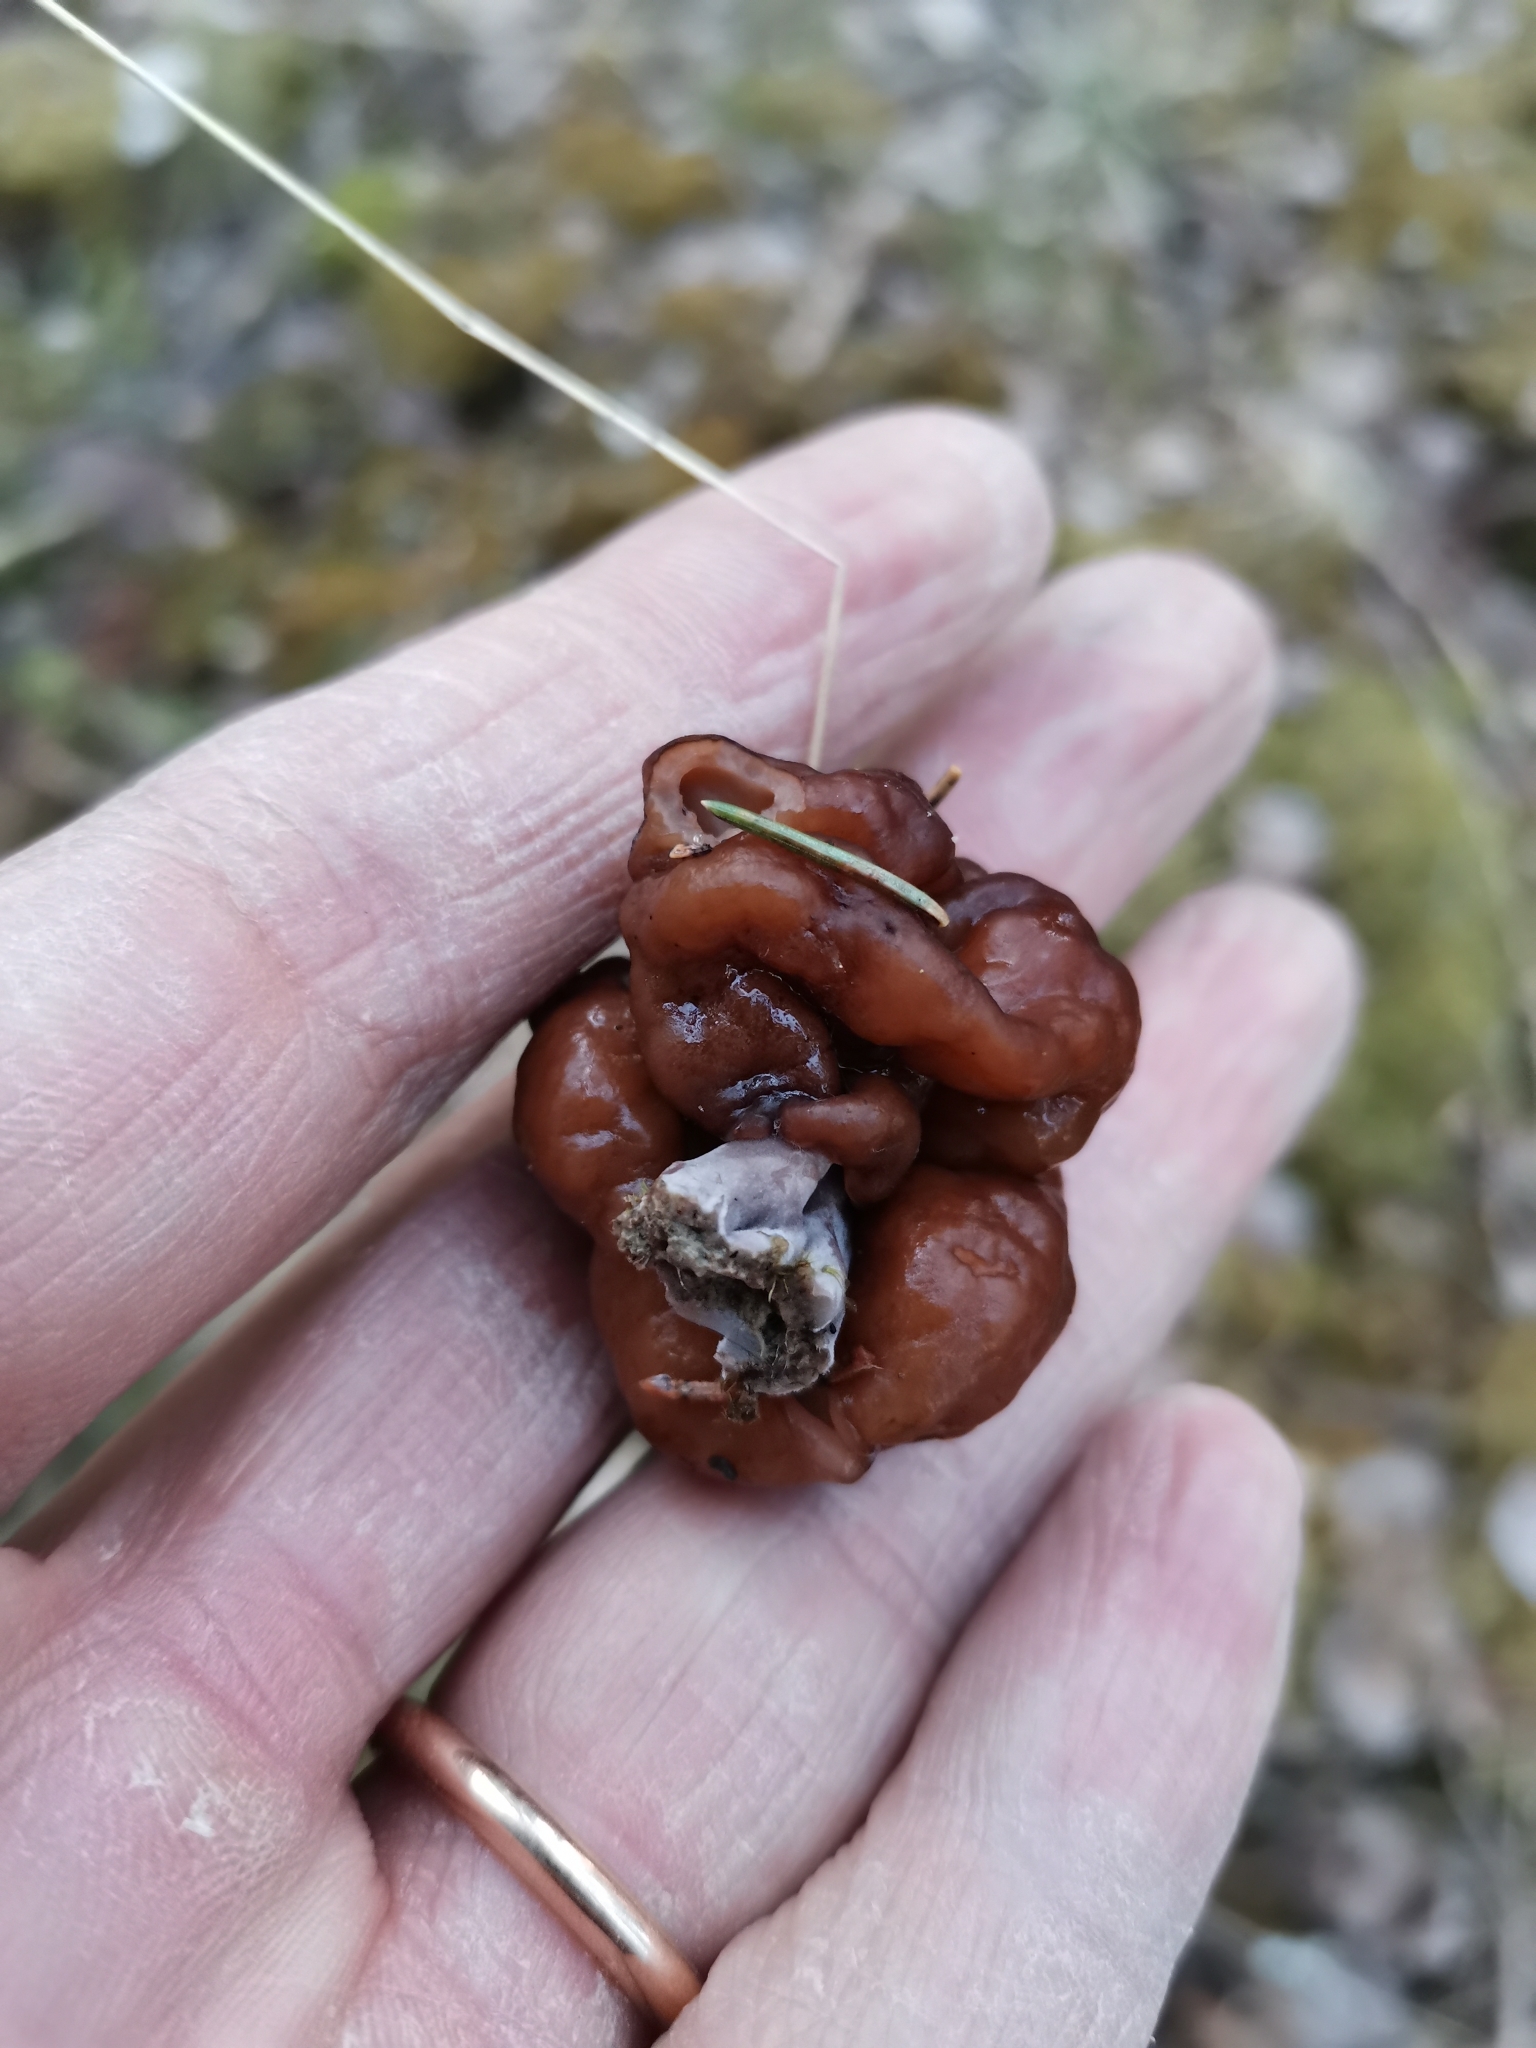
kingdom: Fungi
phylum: Ascomycota
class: Pezizomycetes
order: Pezizales
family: Discinaceae
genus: Gyromitra
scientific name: Gyromitra esculenta
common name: False morel
